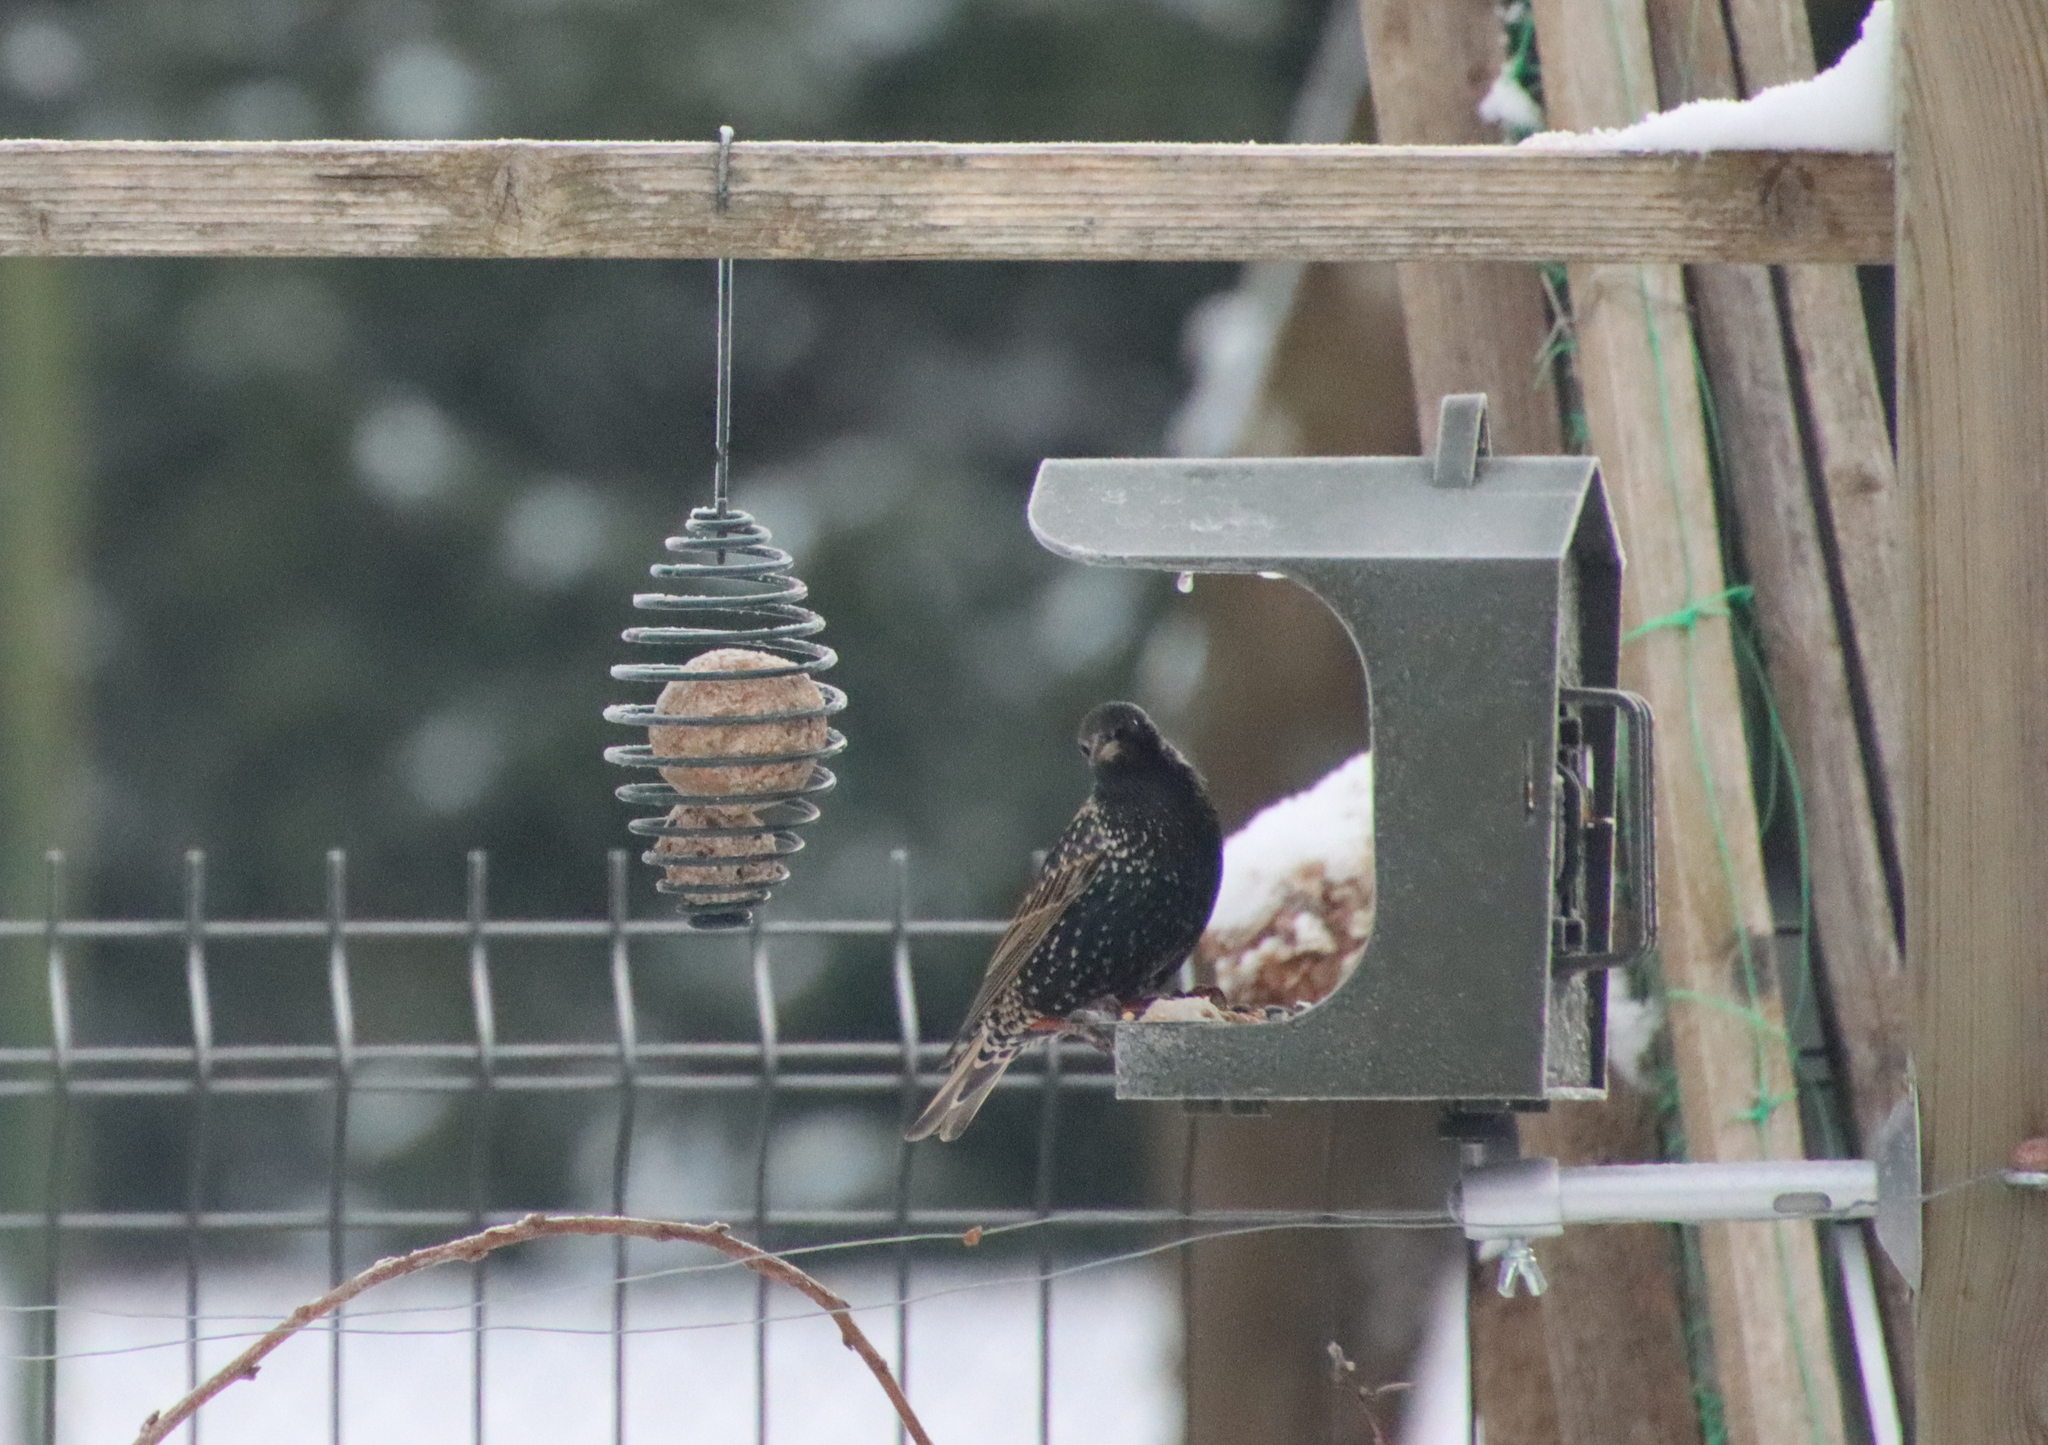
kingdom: Animalia
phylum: Chordata
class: Aves
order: Passeriformes
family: Sturnidae
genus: Sturnus
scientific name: Sturnus vulgaris
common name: Common starling
